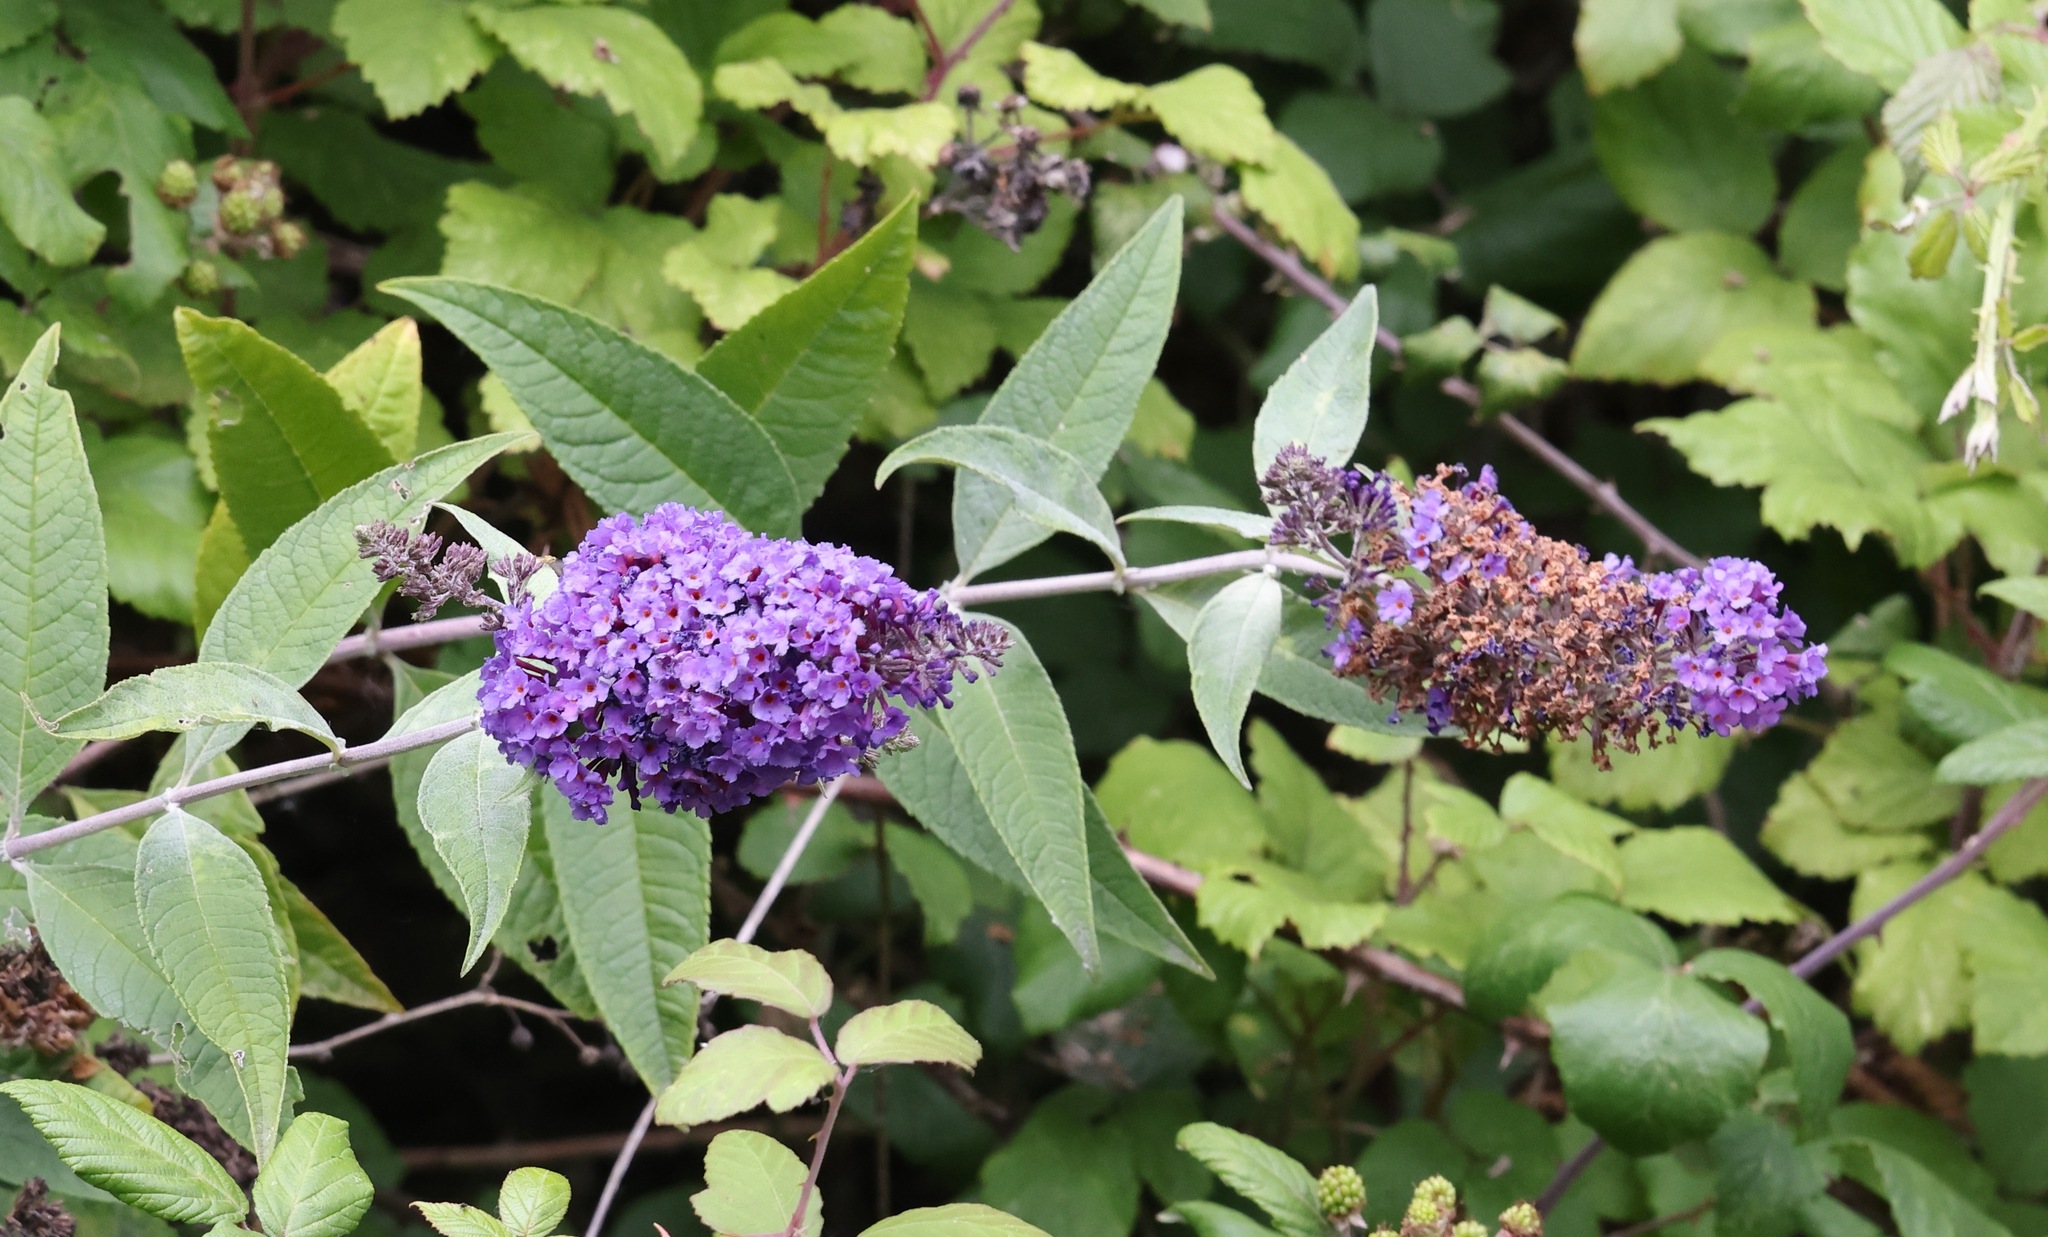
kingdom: Plantae
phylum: Tracheophyta
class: Magnoliopsida
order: Lamiales
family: Scrophulariaceae
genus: Buddleja
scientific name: Buddleja davidii
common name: Butterfly-bush
